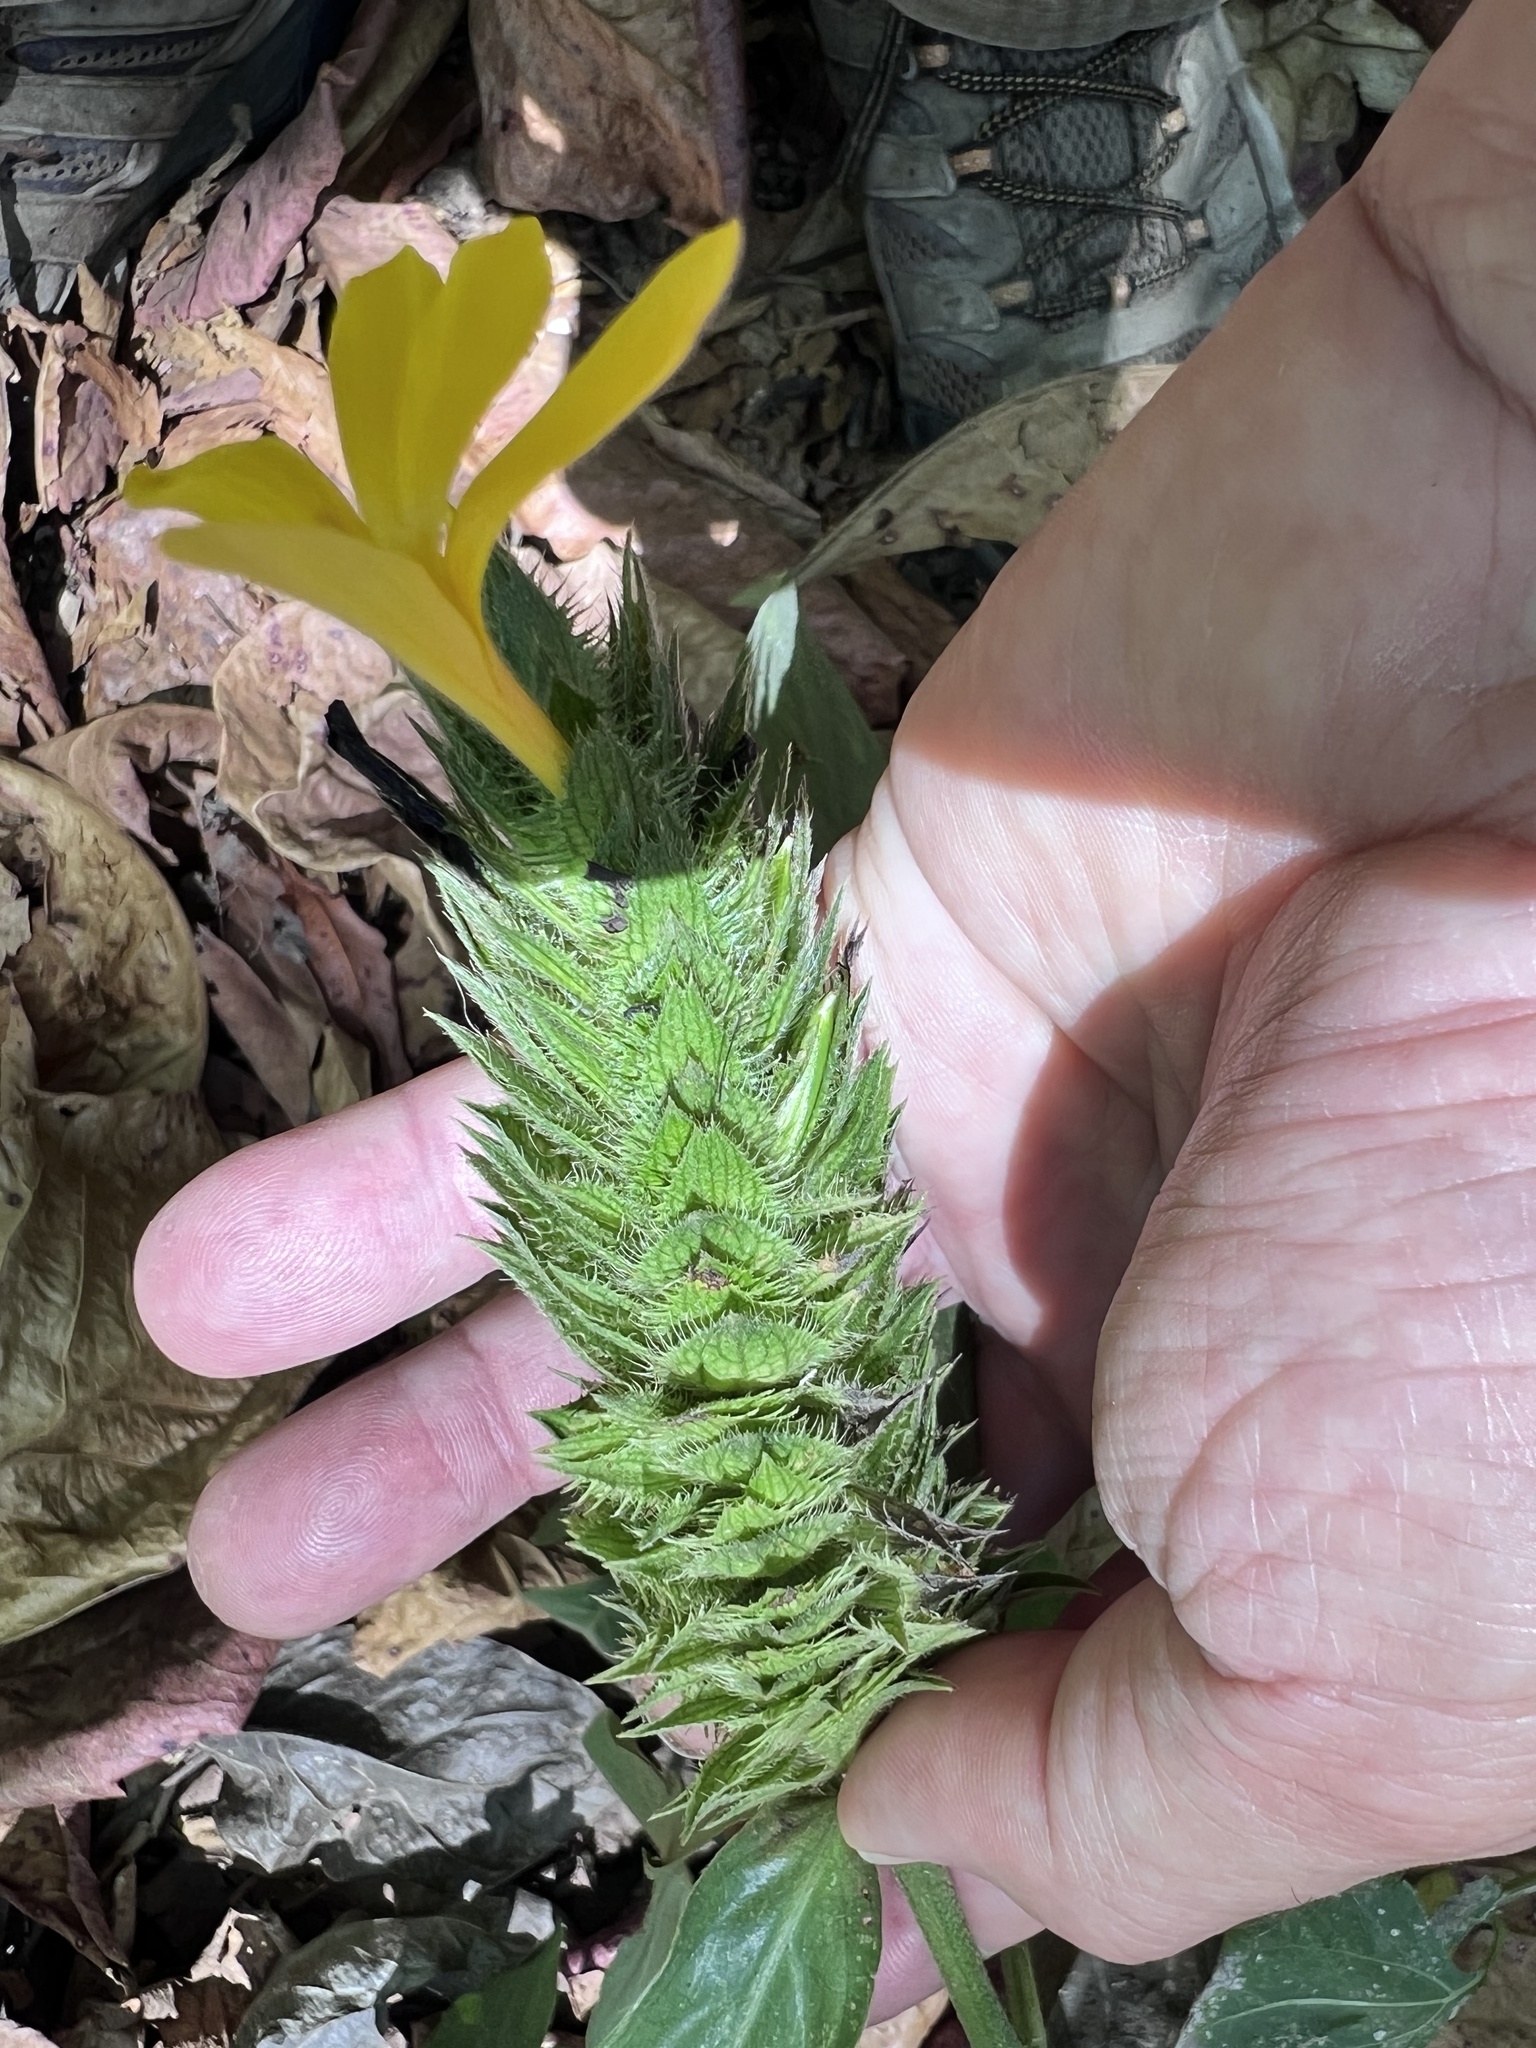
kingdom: Plantae
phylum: Tracheophyta
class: Magnoliopsida
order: Lamiales
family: Acanthaceae
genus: Barleria
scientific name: Barleria oenotheroides
